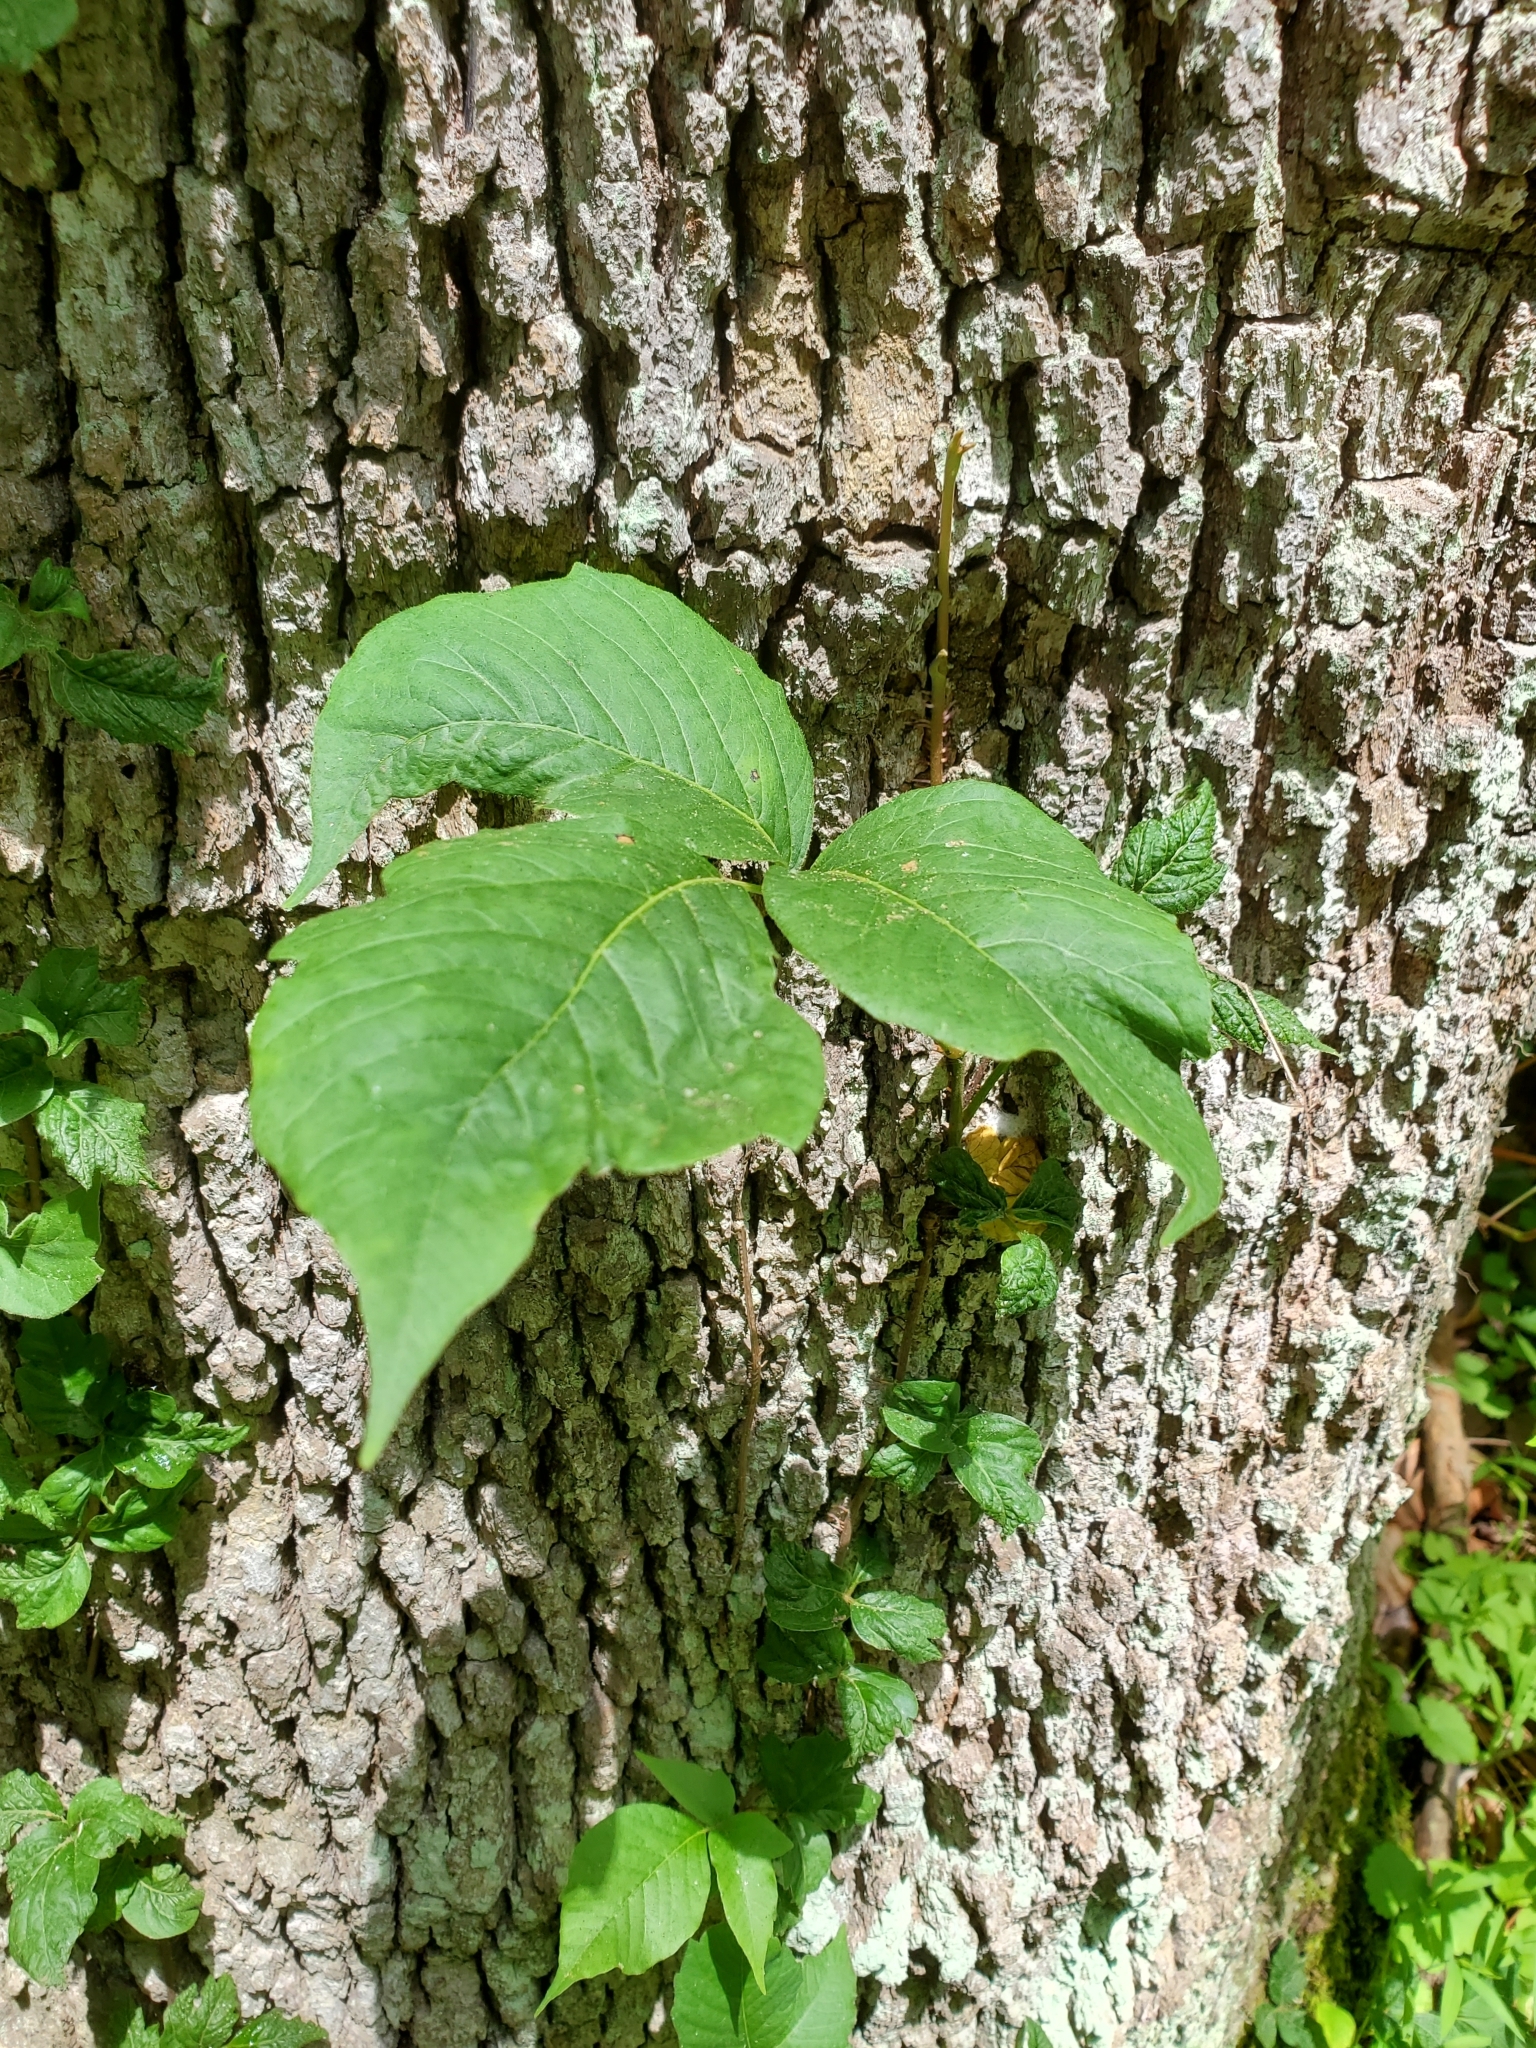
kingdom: Plantae
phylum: Tracheophyta
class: Magnoliopsida
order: Sapindales
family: Anacardiaceae
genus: Toxicodendron
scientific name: Toxicodendron radicans
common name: Poison ivy
